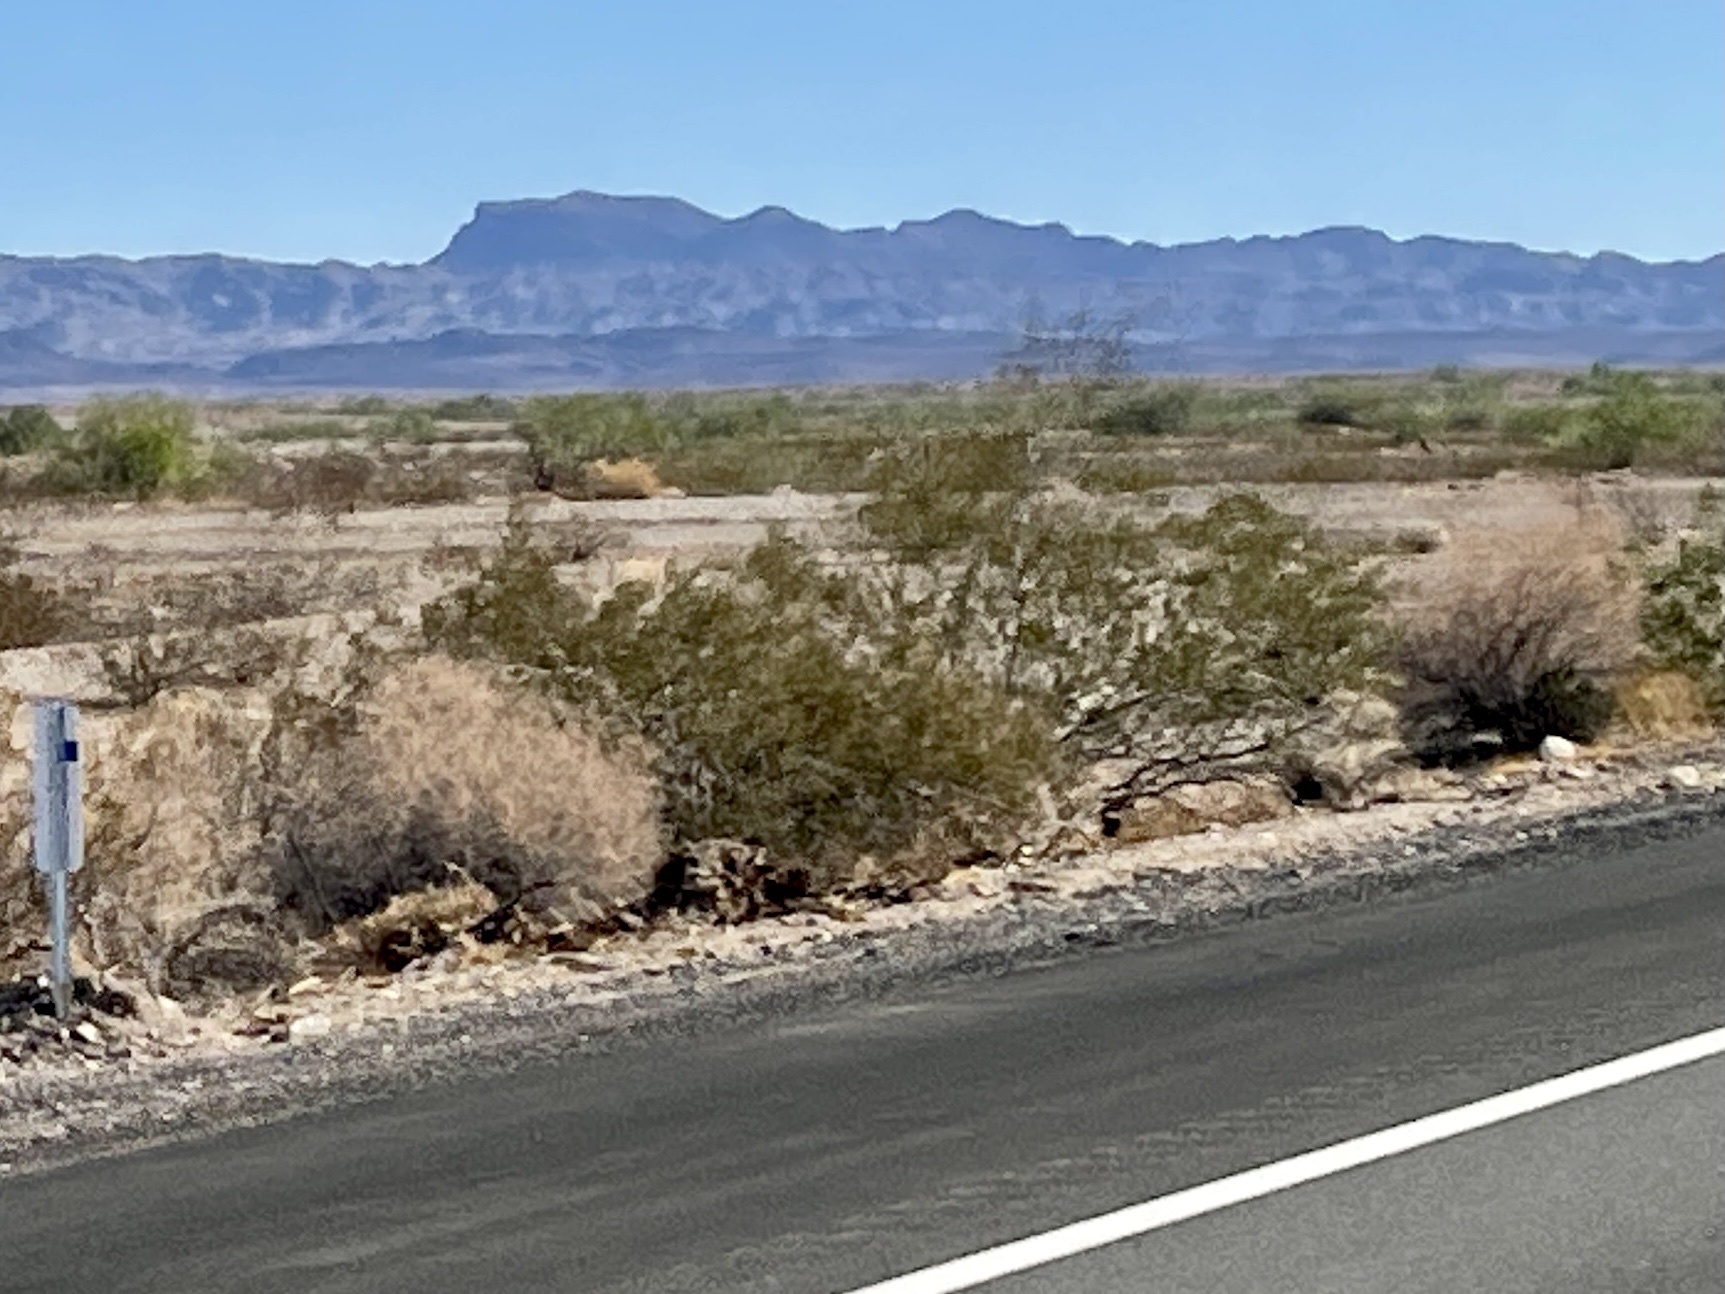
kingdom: Plantae
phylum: Tracheophyta
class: Magnoliopsida
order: Zygophyllales
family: Zygophyllaceae
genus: Larrea
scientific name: Larrea tridentata
